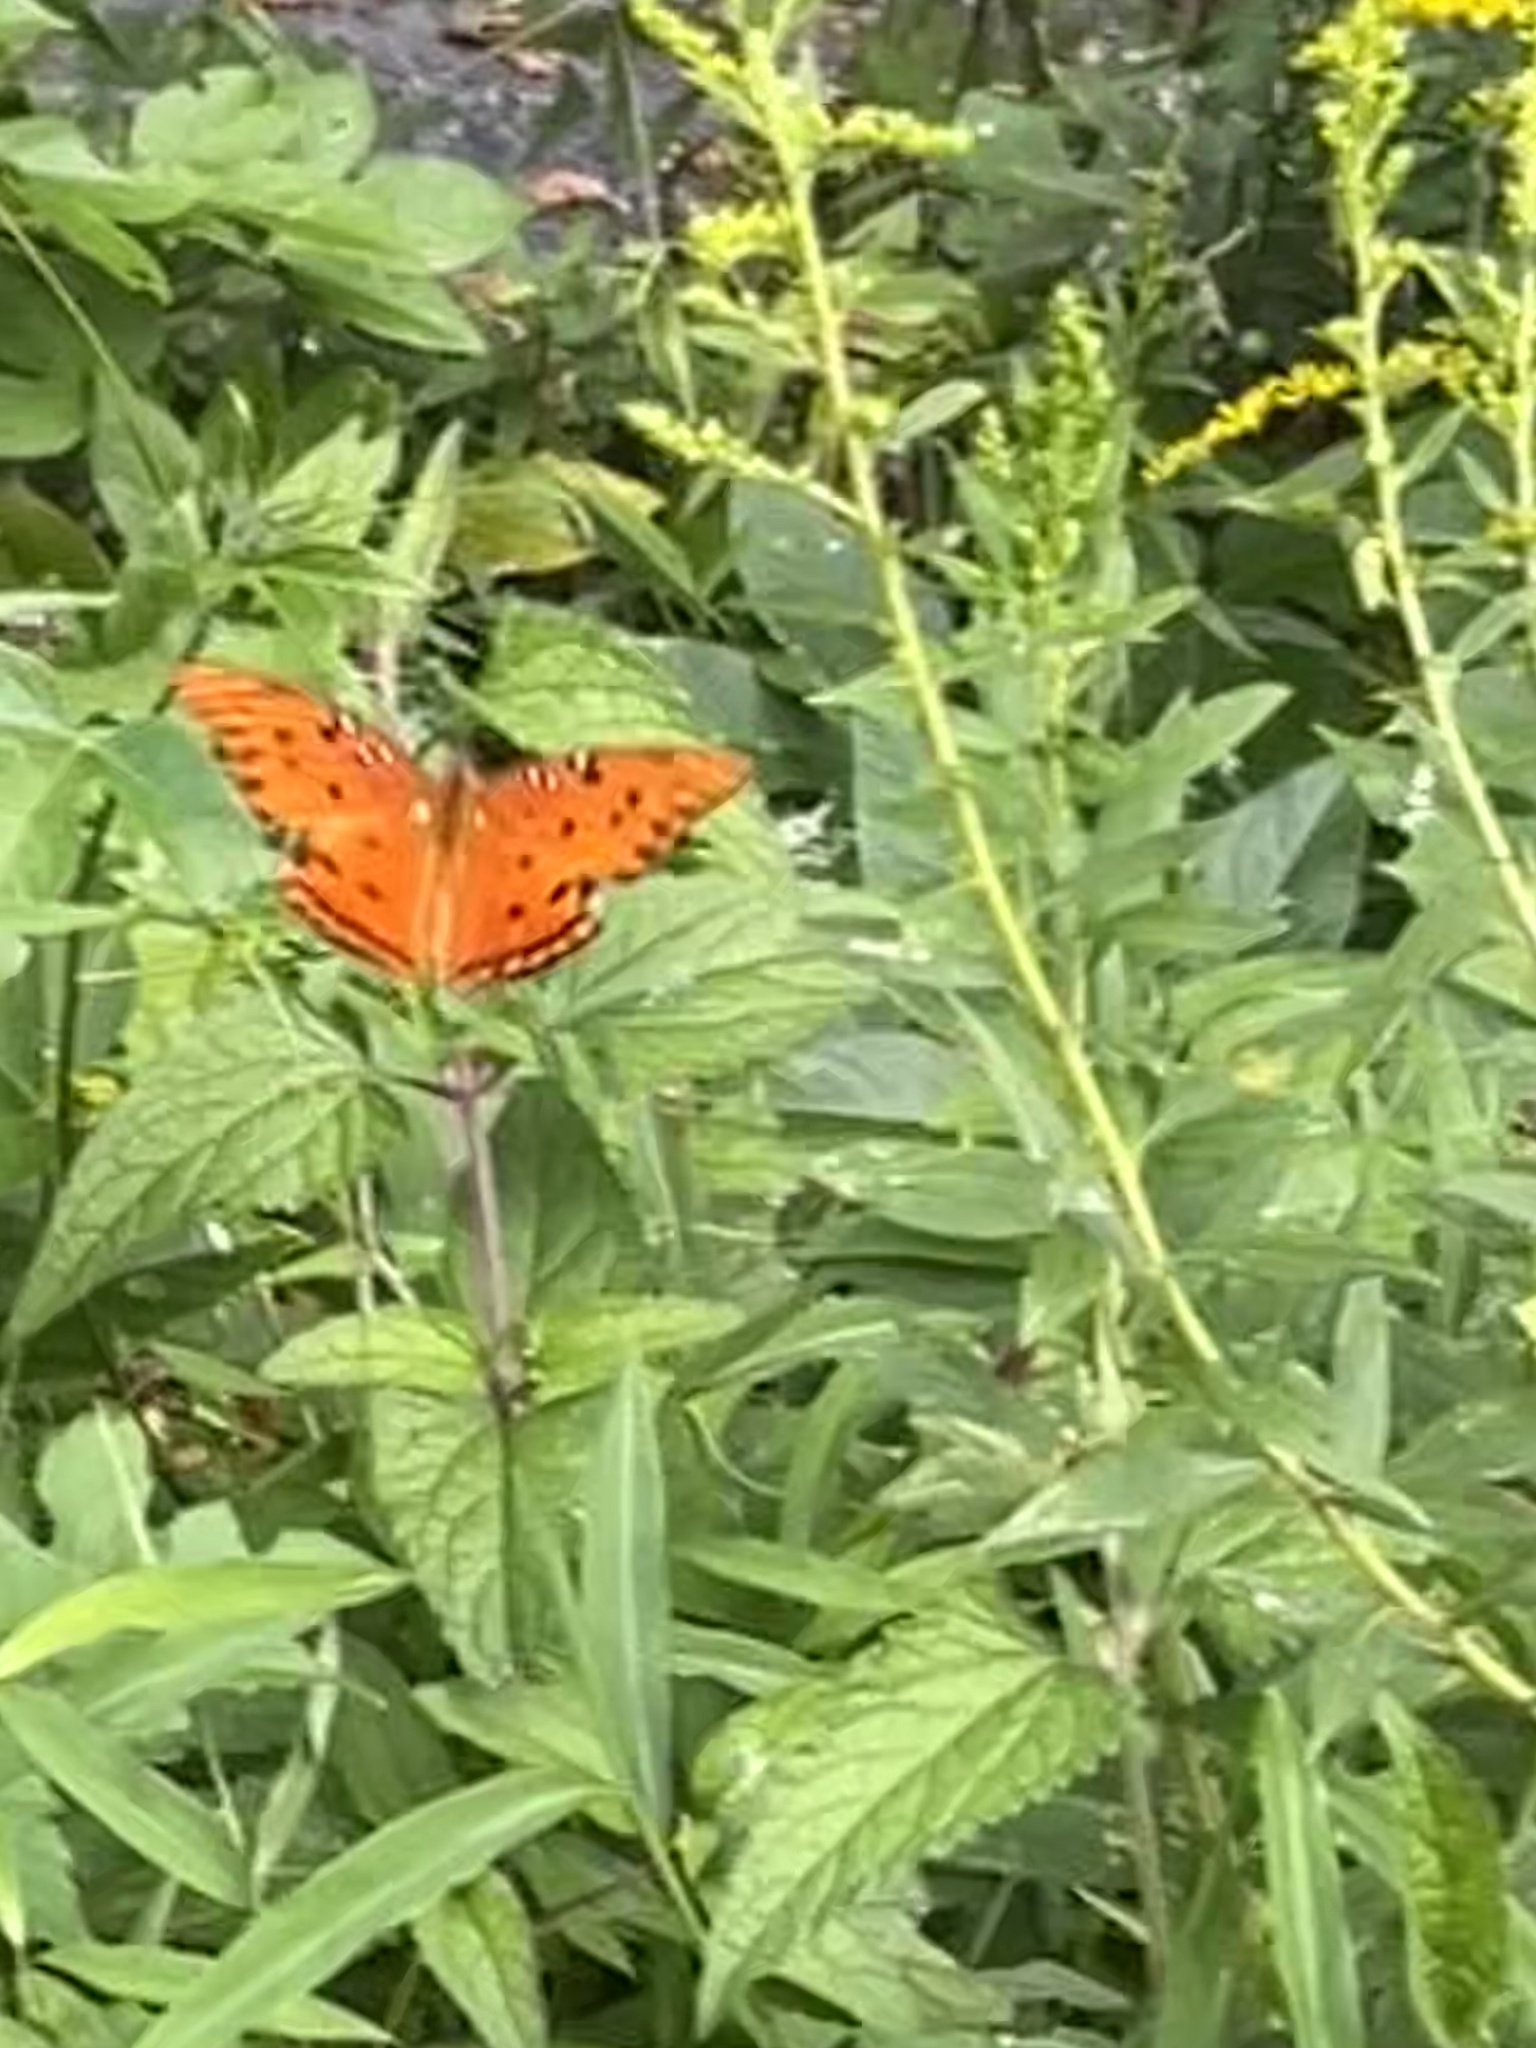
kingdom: Animalia
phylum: Arthropoda
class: Insecta
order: Lepidoptera
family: Nymphalidae
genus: Dione
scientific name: Dione vanillae
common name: Gulf fritillary
